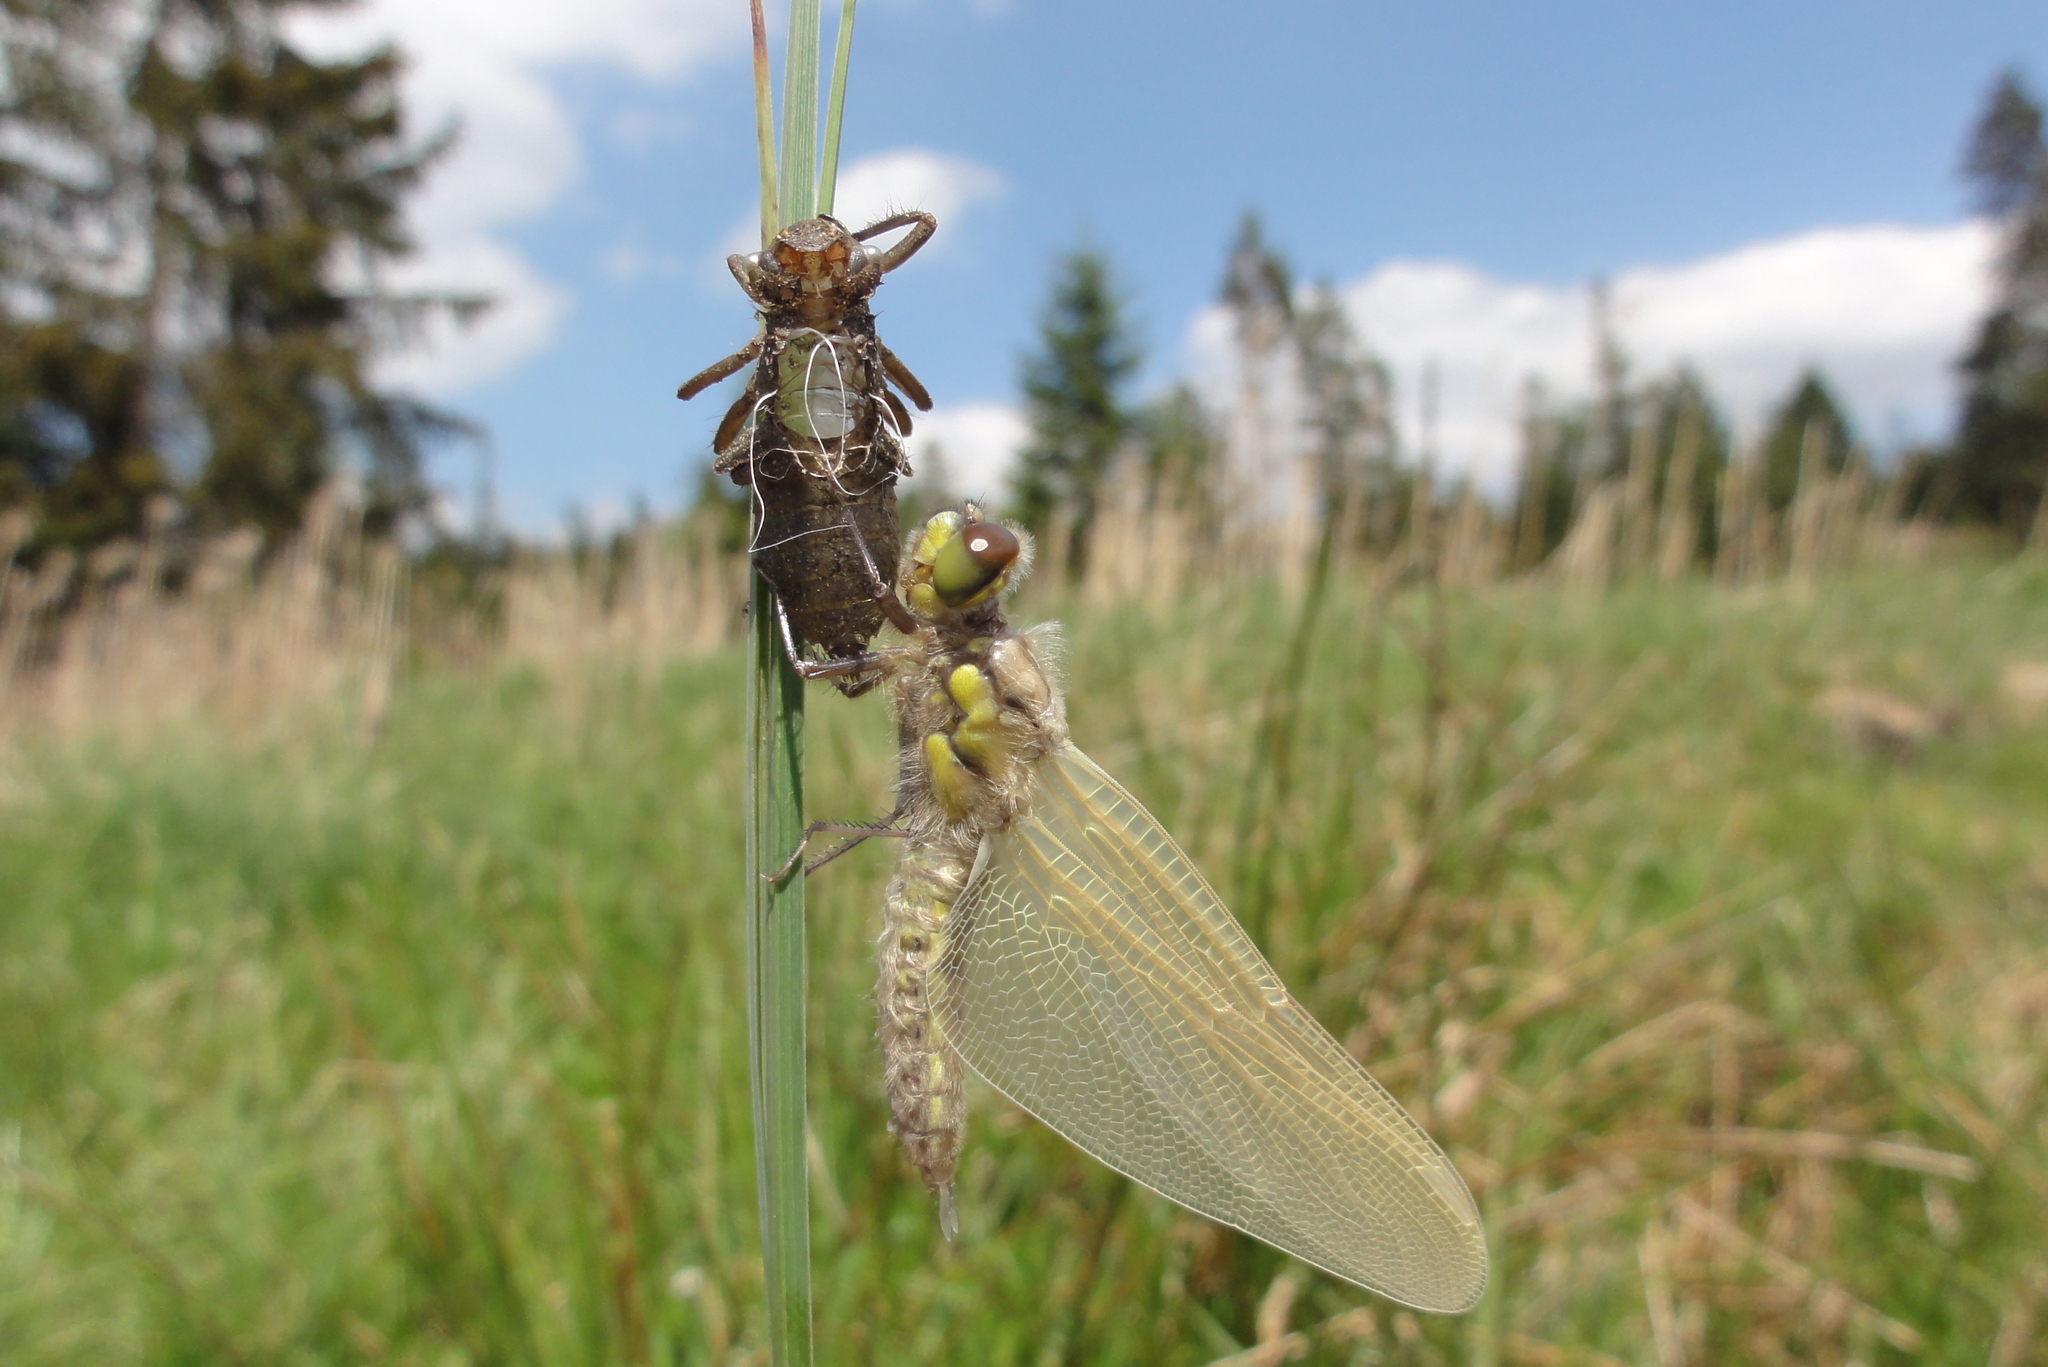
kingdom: Animalia
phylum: Arthropoda
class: Insecta
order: Odonata
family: Libellulidae
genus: Libellula
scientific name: Libellula quadrimaculata
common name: Four-spotted chaser
